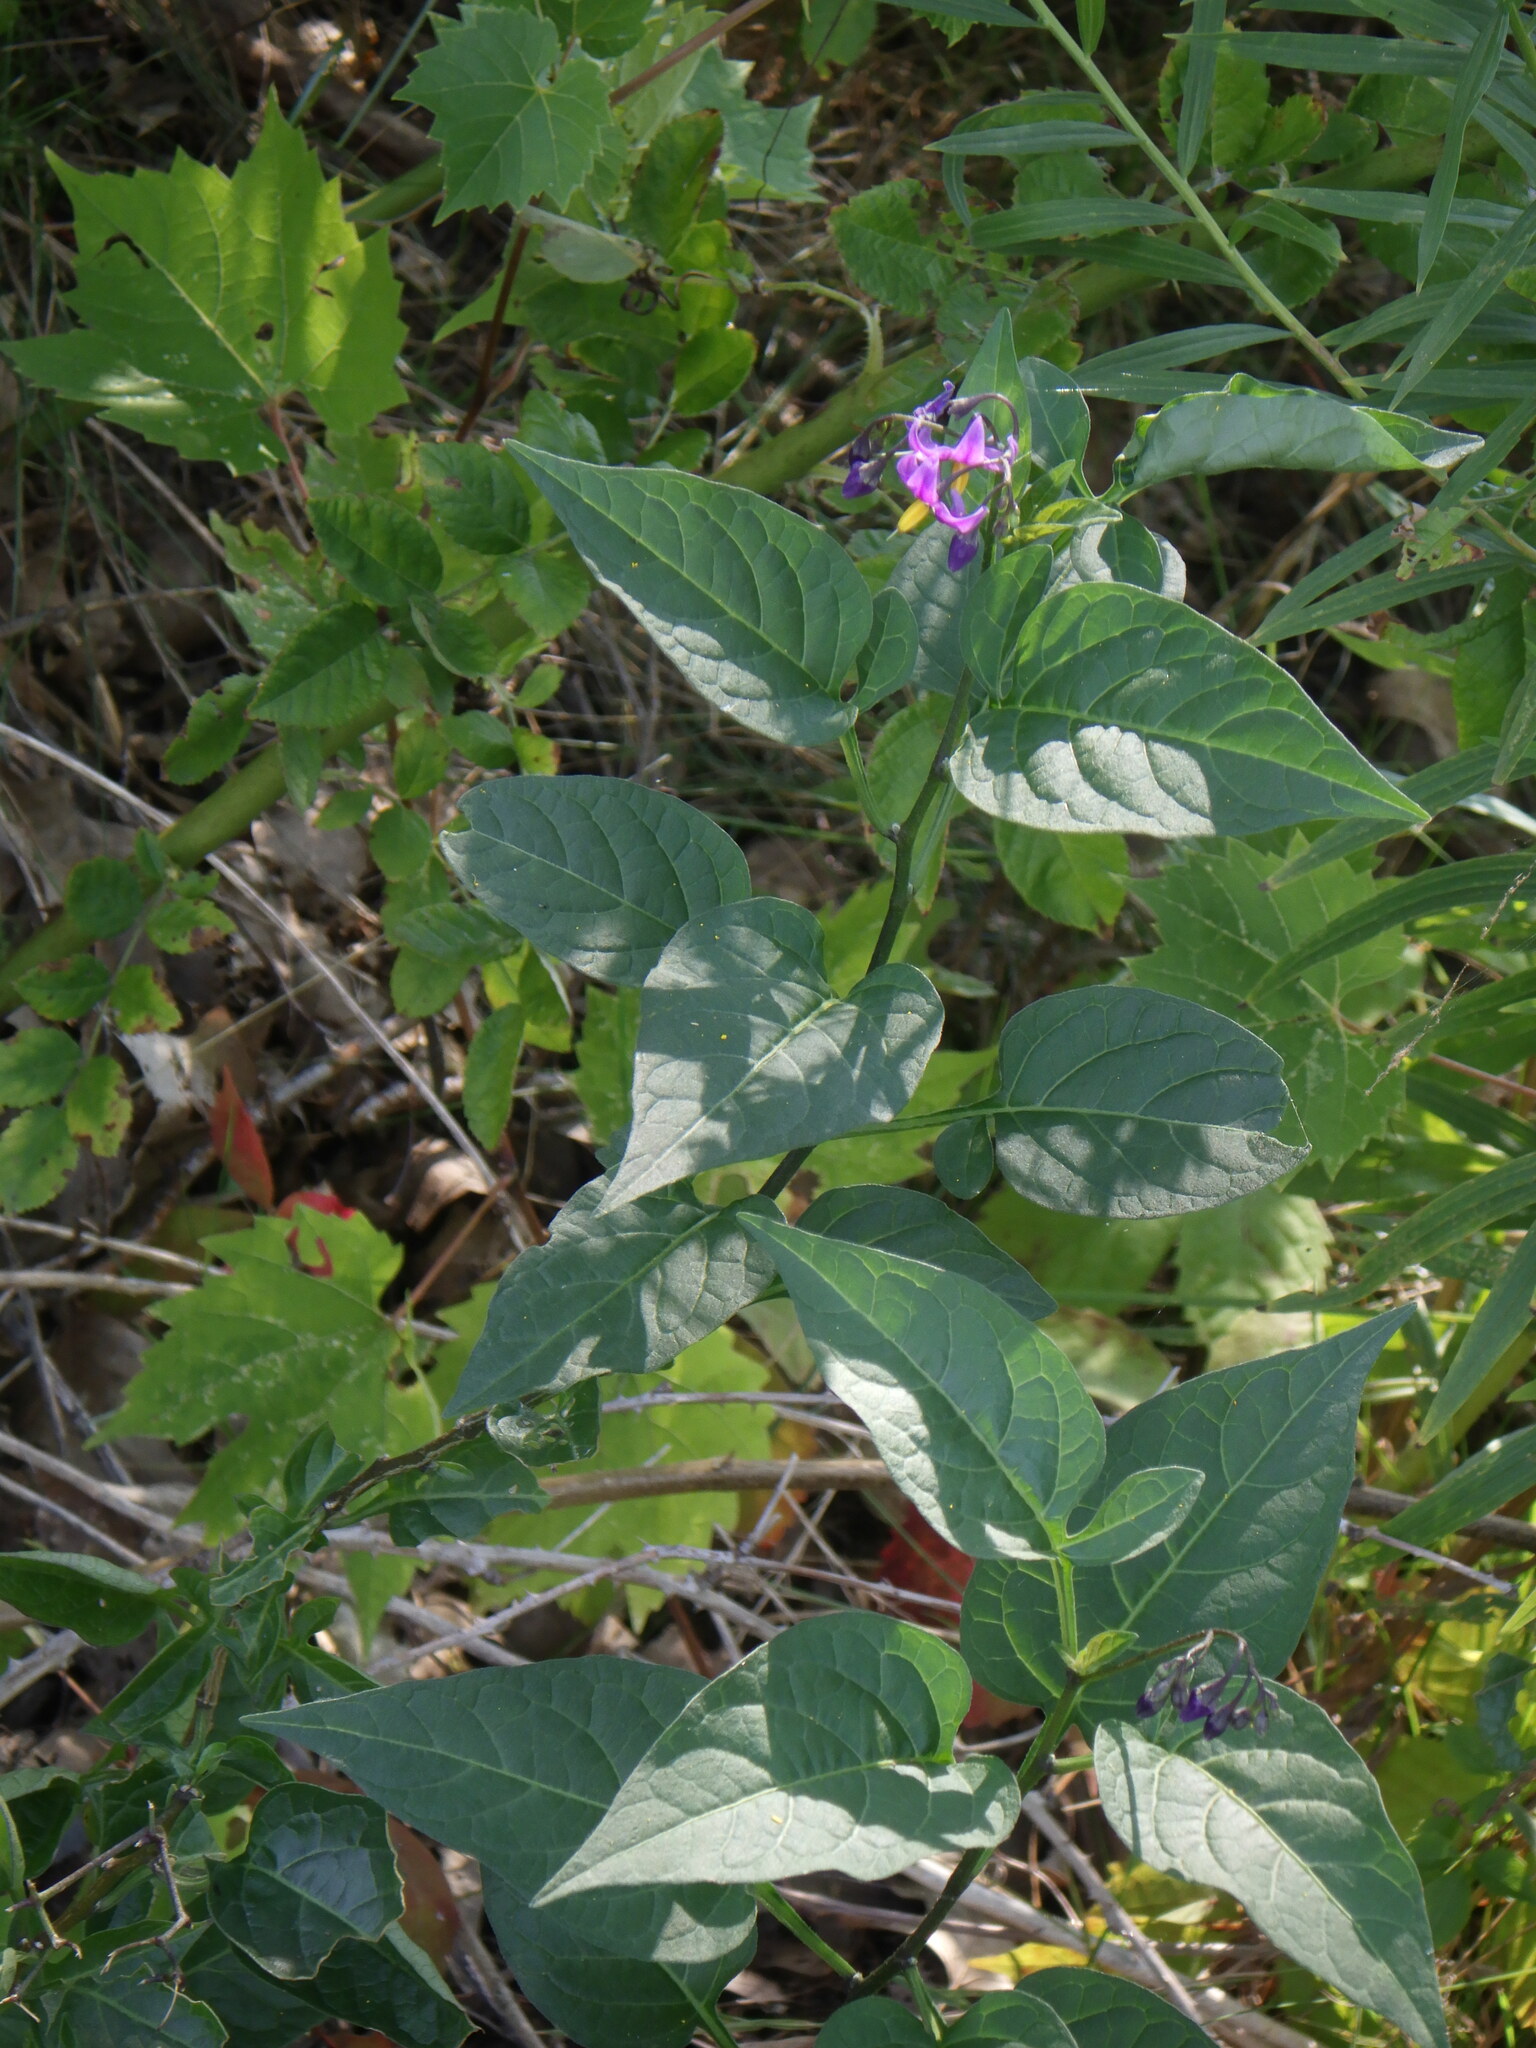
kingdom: Plantae
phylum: Tracheophyta
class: Magnoliopsida
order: Solanales
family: Solanaceae
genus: Solanum
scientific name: Solanum dulcamara
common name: Climbing nightshade
